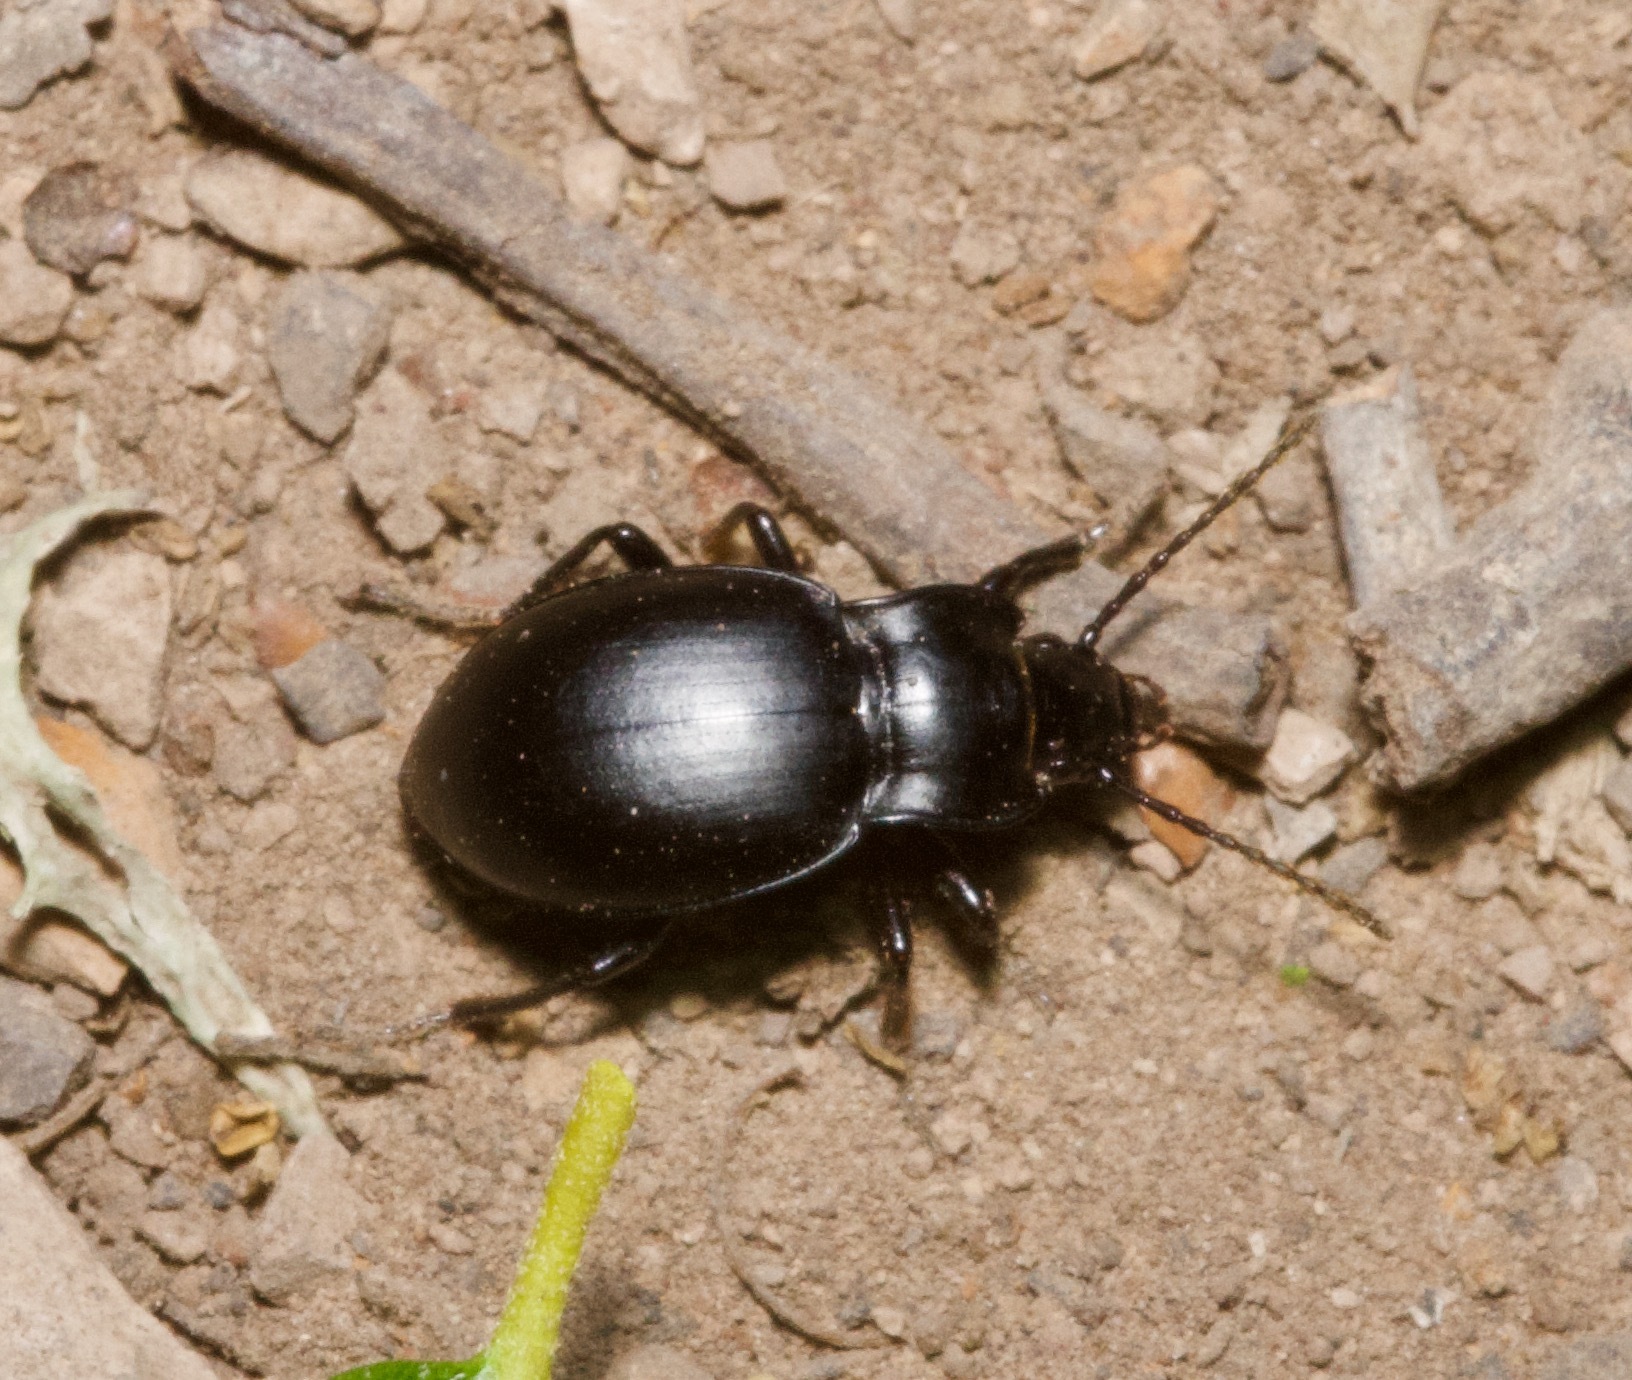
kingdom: Animalia
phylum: Arthropoda
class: Insecta
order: Coleoptera
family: Carabidae
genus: Metrius
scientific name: Metrius contractus
